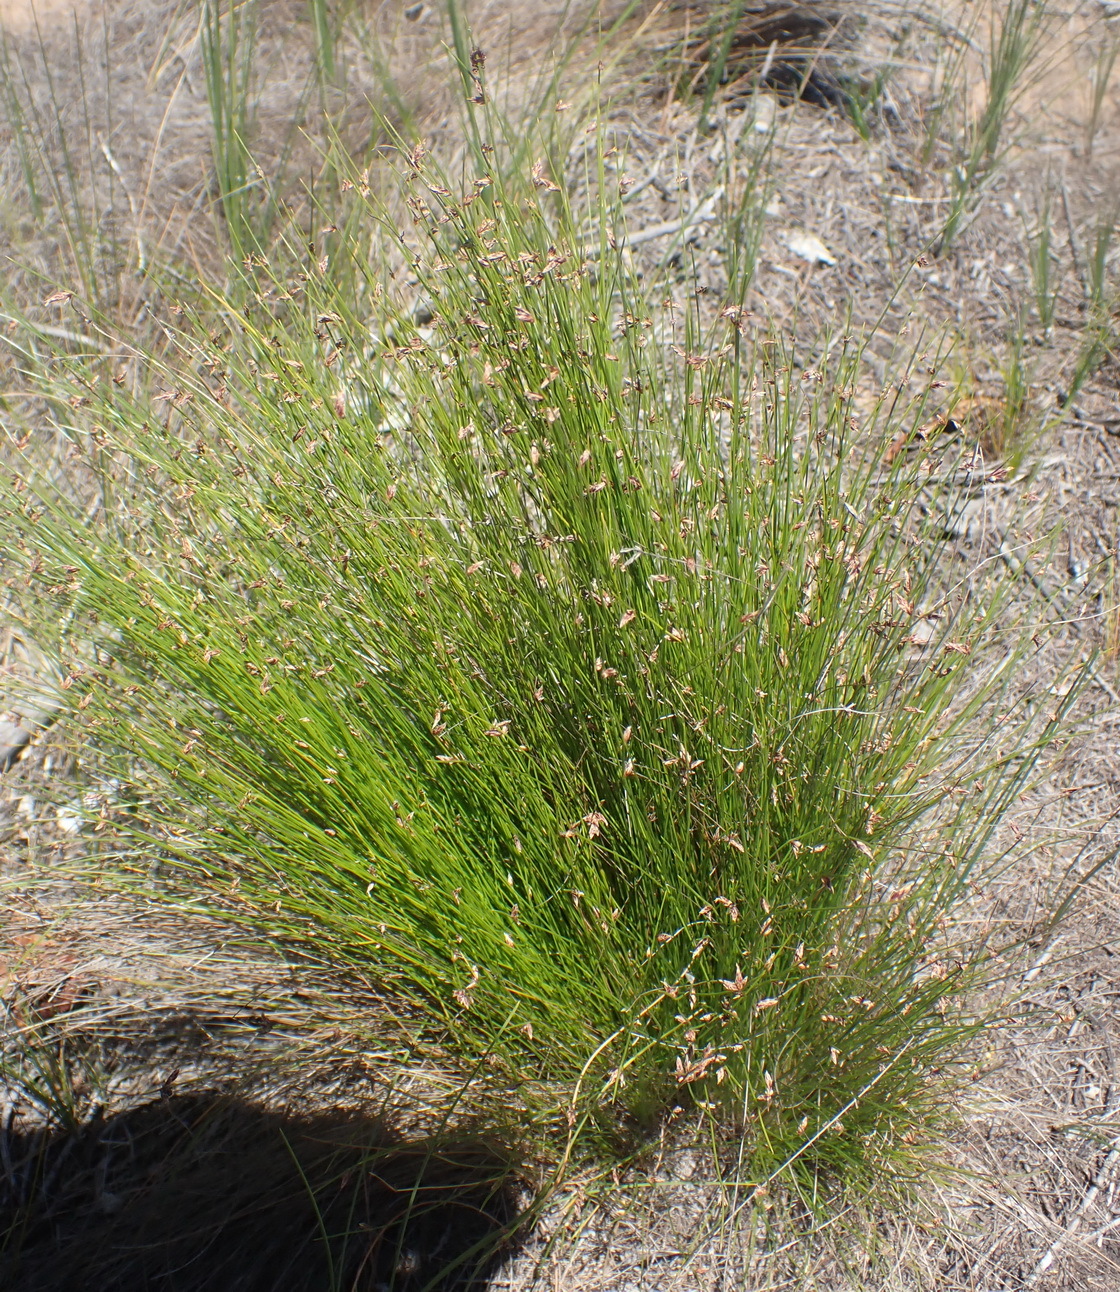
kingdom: Plantae
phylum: Tracheophyta
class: Liliopsida
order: Poales
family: Cyperaceae
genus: Ficinia
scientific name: Ficinia oligantha
